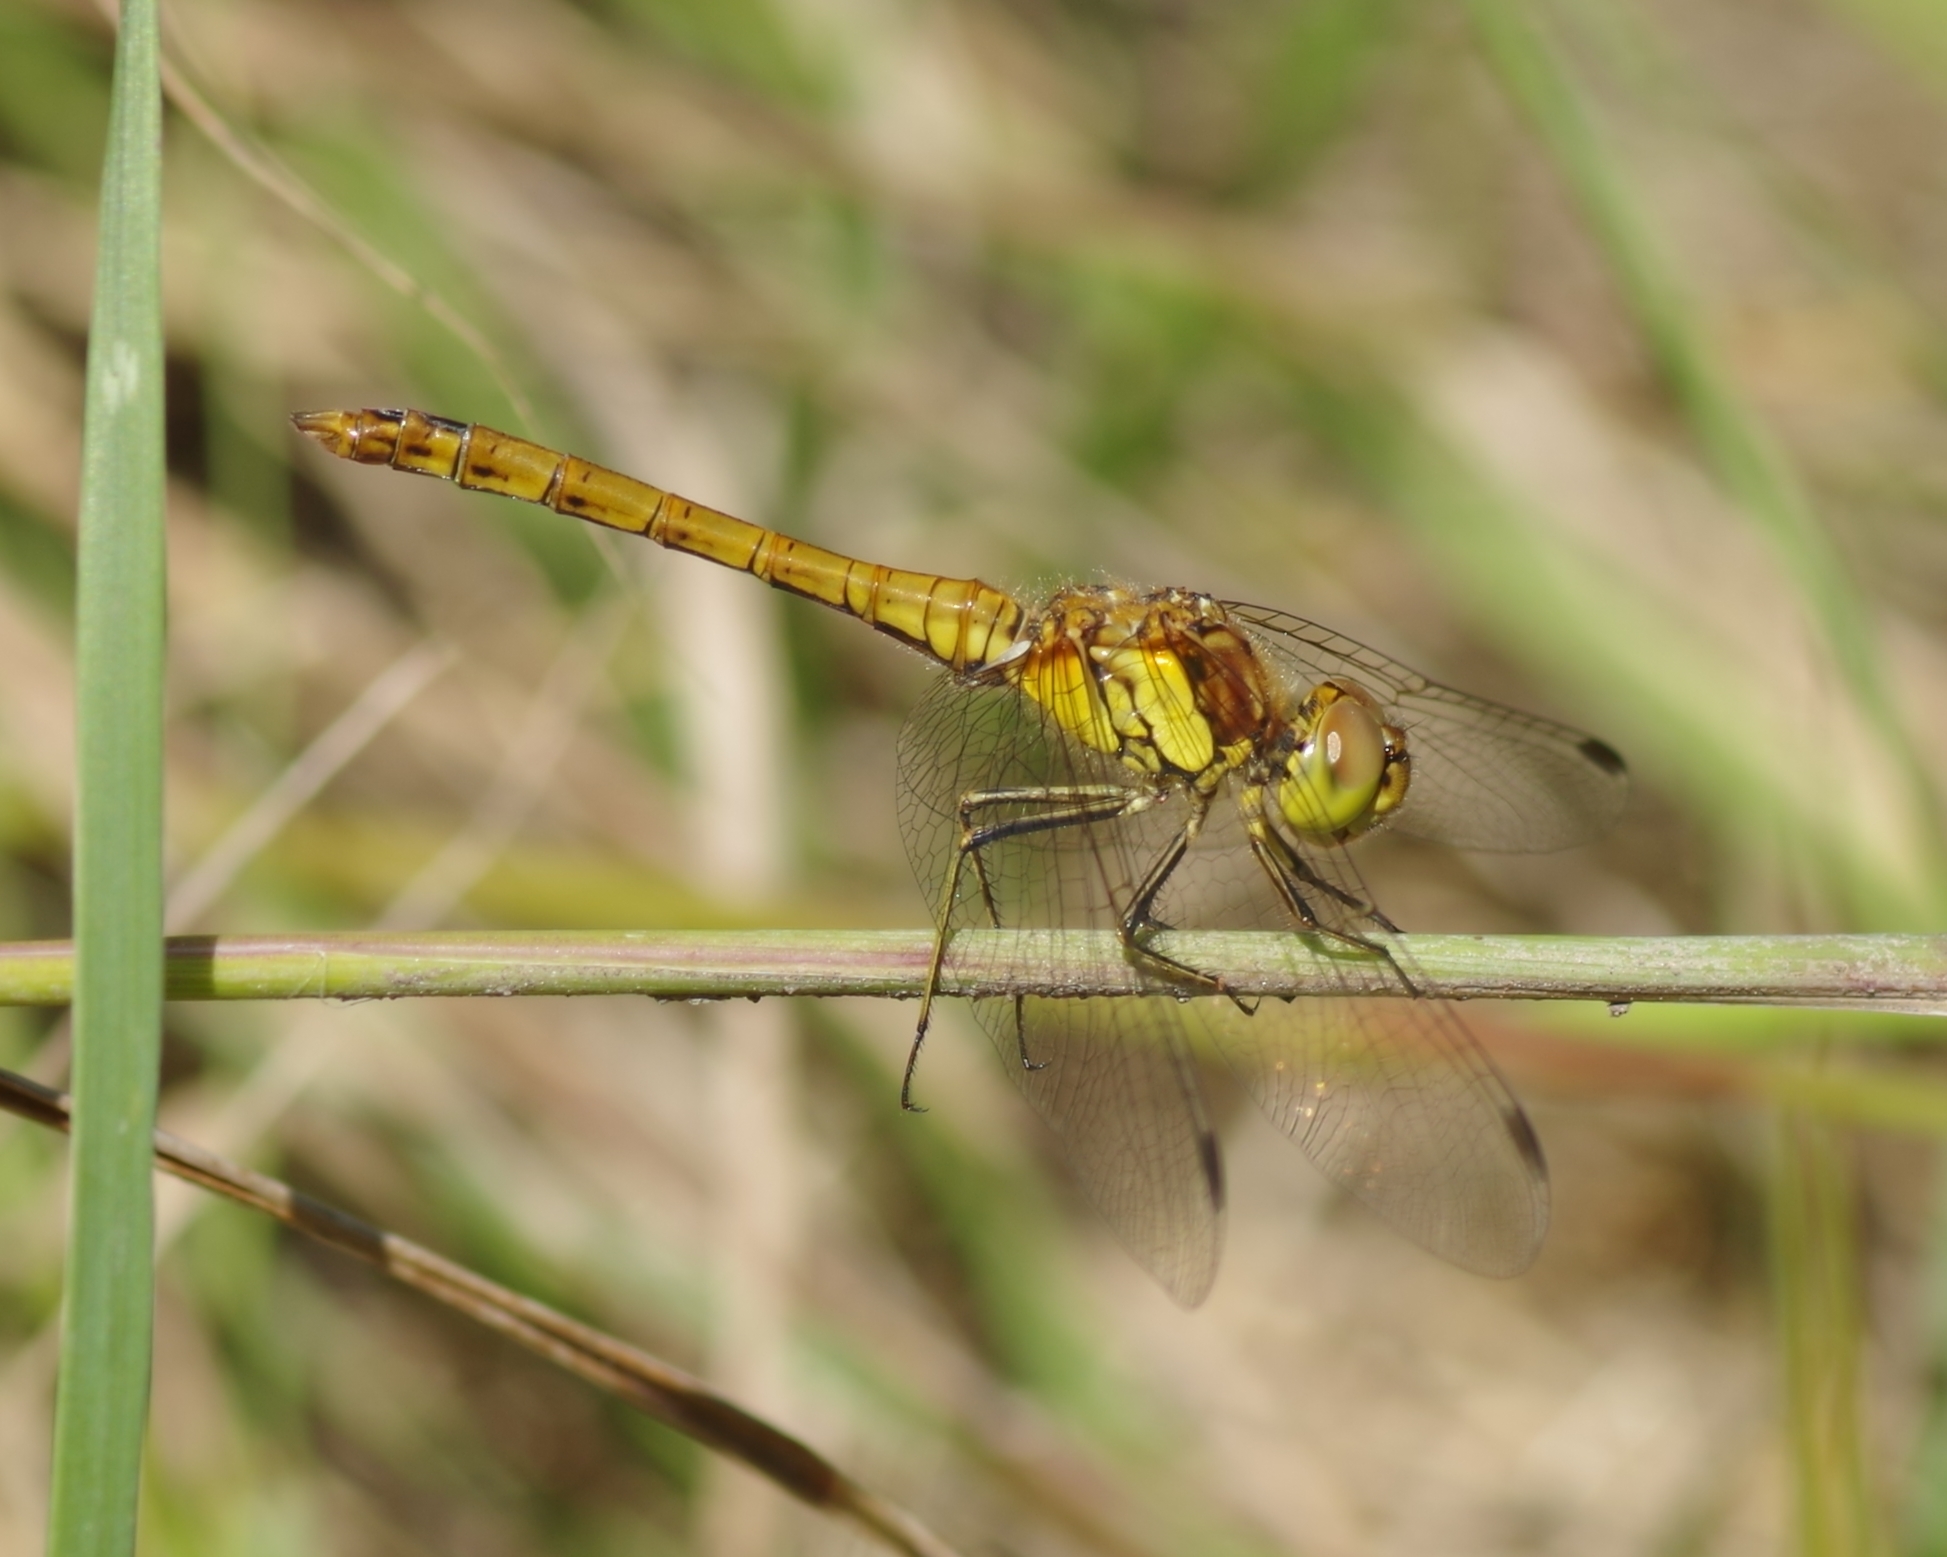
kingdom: Animalia
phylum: Arthropoda
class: Insecta
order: Odonata
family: Libellulidae
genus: Sympetrum
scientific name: Sympetrum striolatum
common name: Common darter
